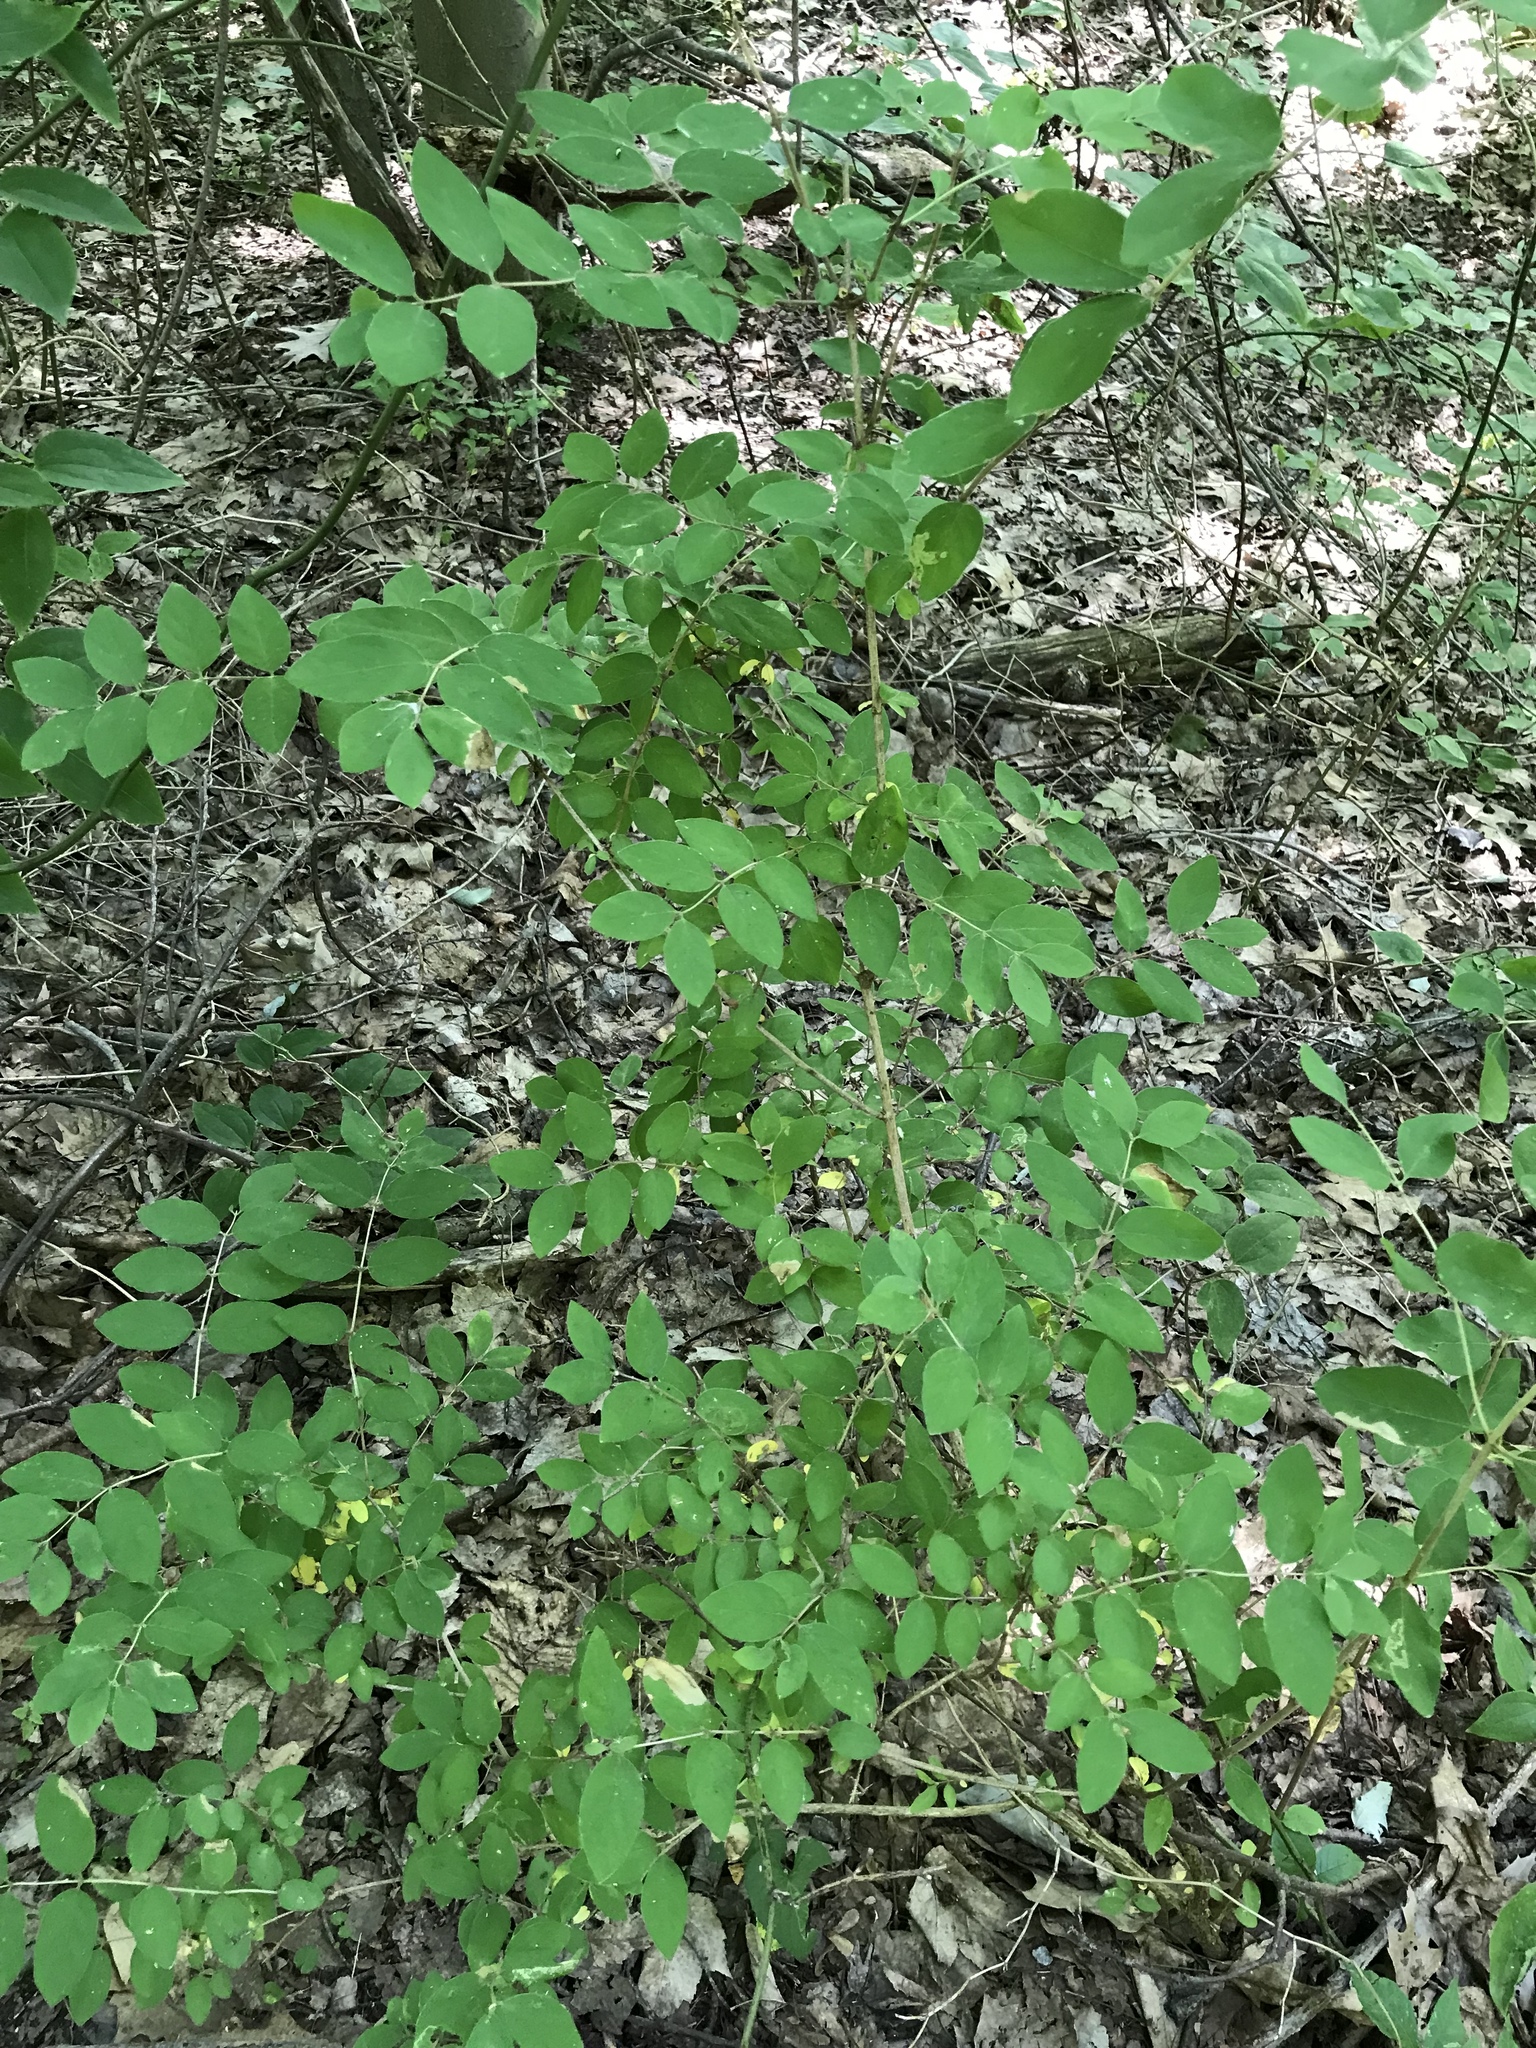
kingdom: Plantae
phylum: Tracheophyta
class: Magnoliopsida
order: Dipsacales
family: Caprifoliaceae
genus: Lonicera
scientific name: Lonicera morrowii
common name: Morrow's honeysuckle
